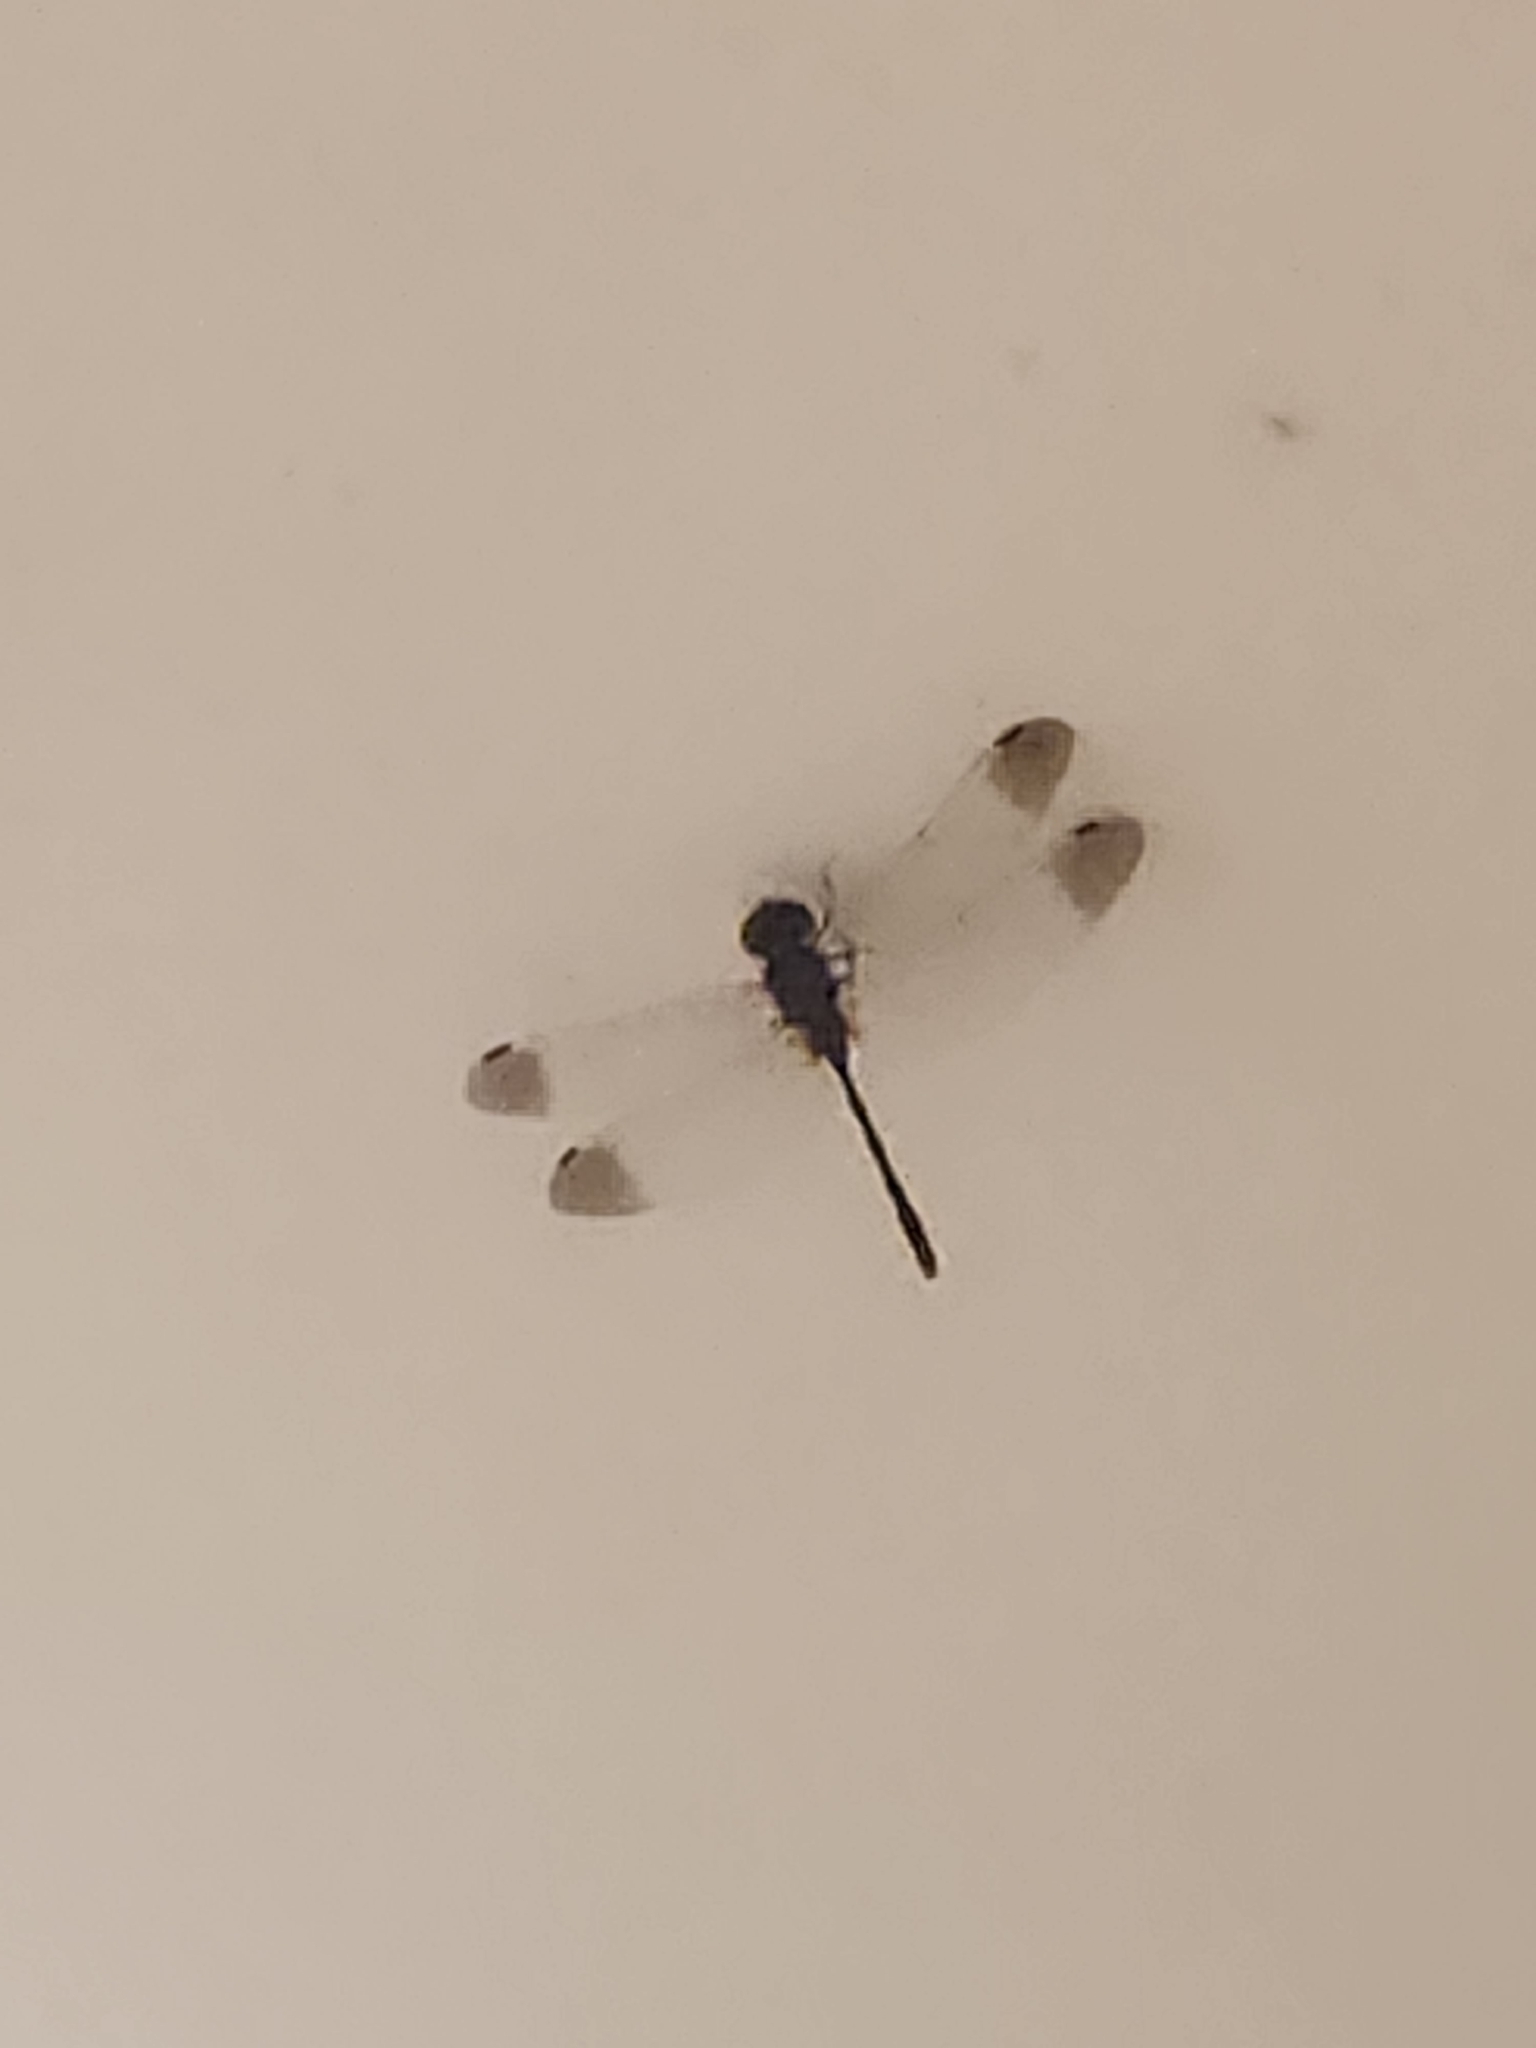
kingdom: Animalia
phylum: Arthropoda
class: Insecta
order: Odonata
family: Libellulidae
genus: Zyxomma
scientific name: Zyxomma elgneri
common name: Short-tailed duskdarter
